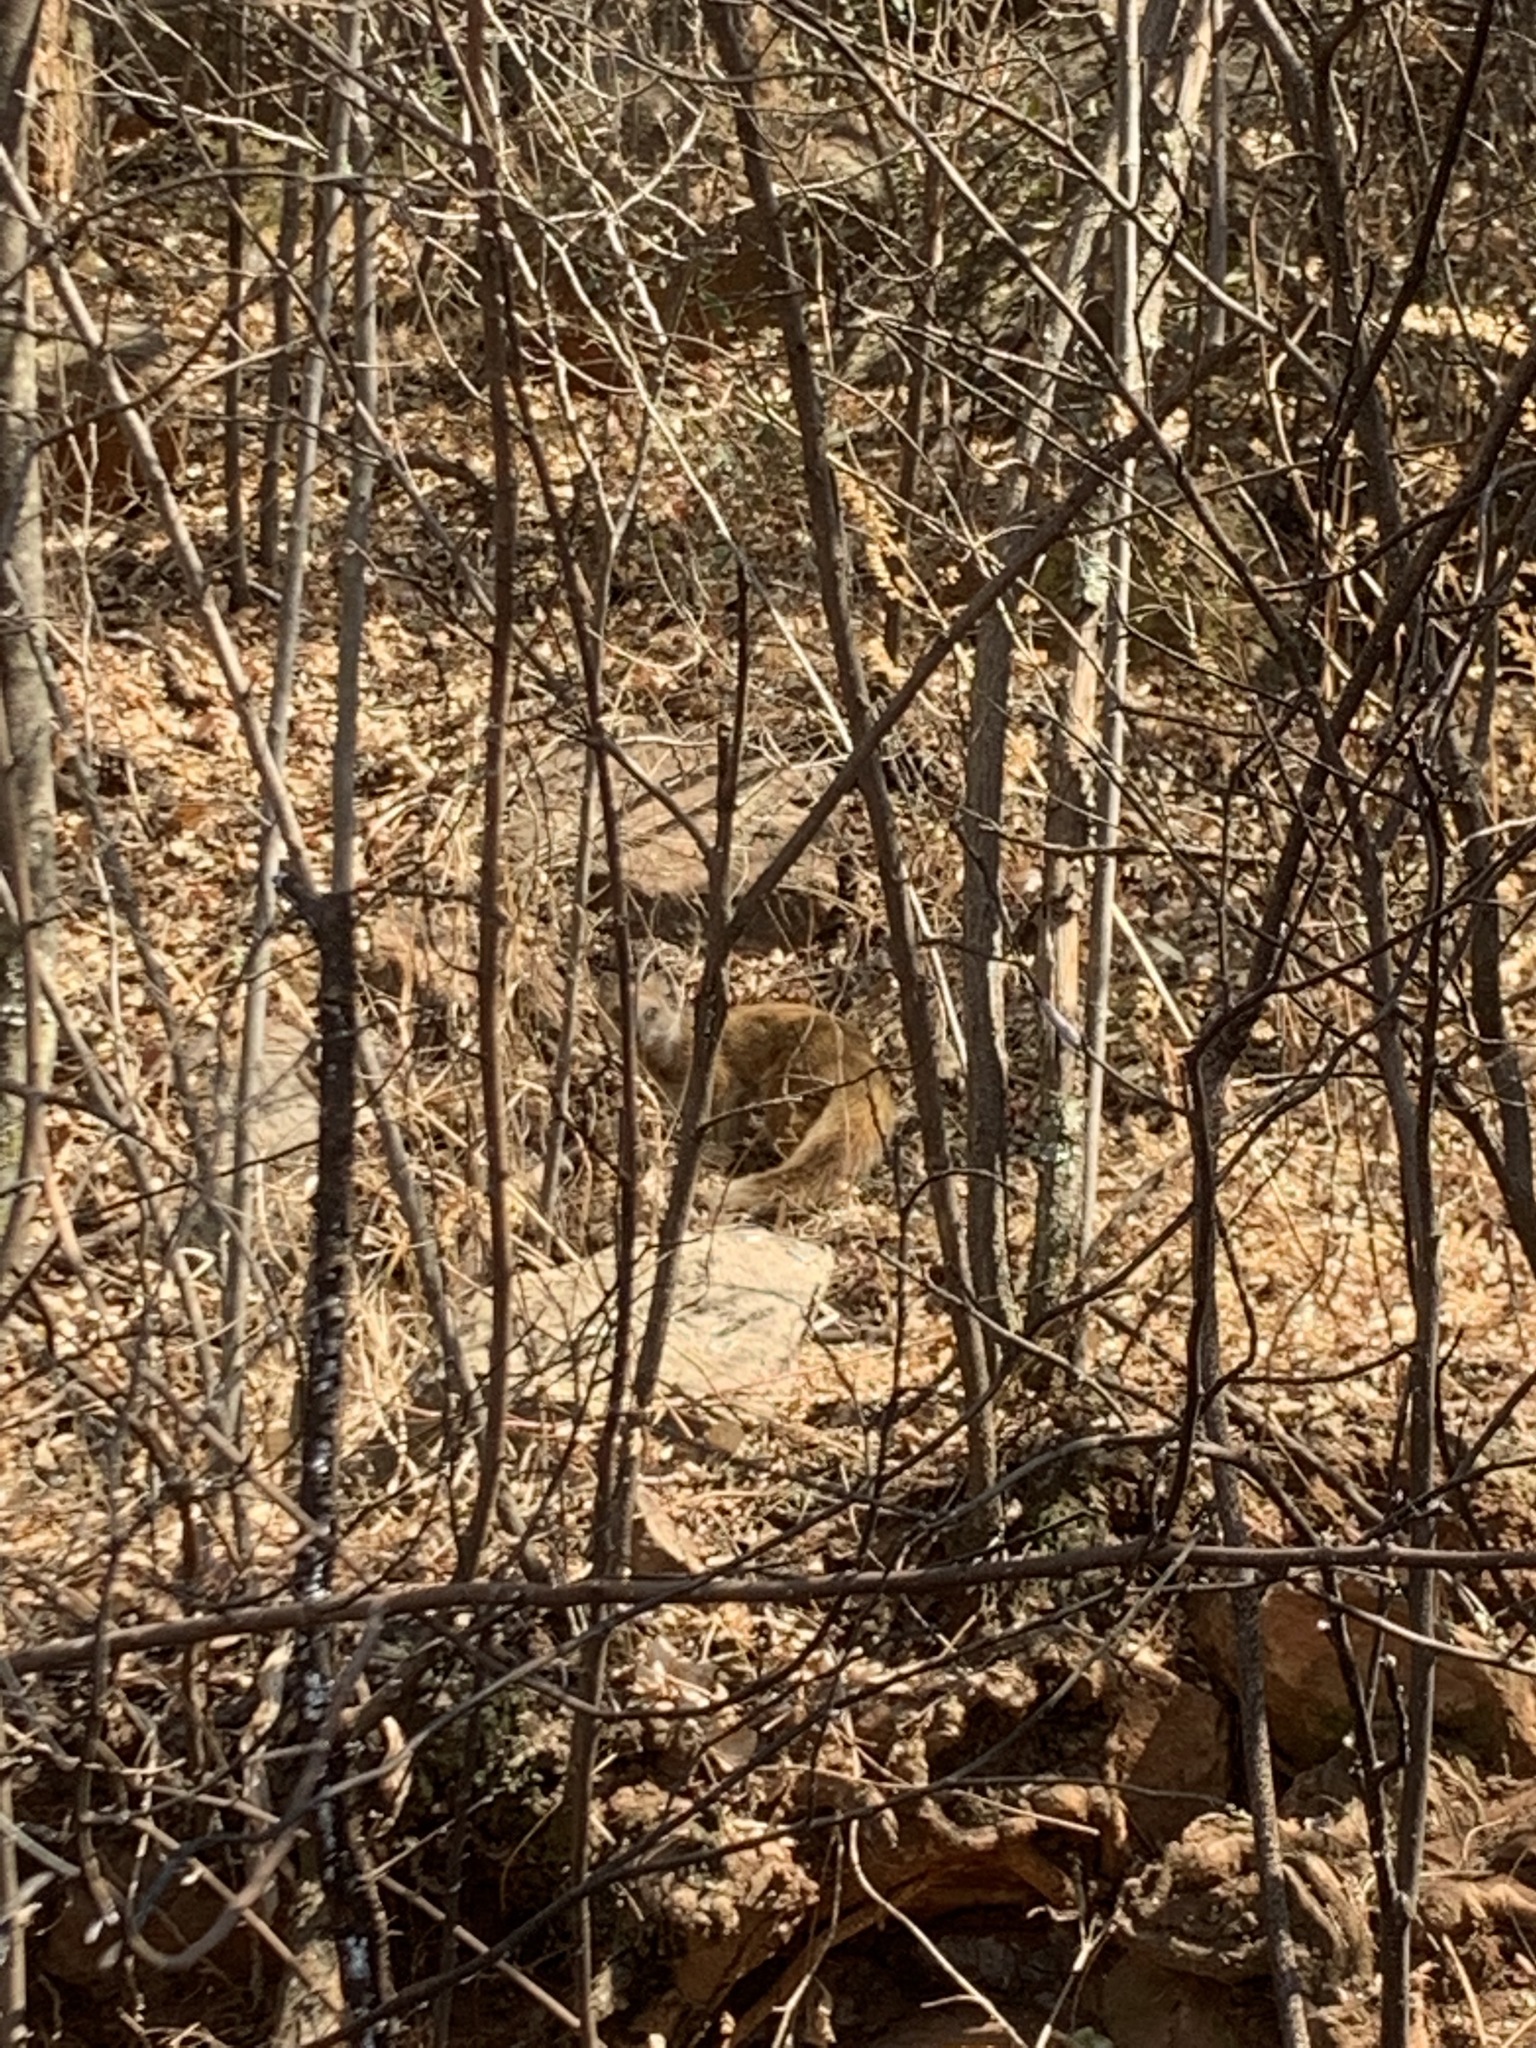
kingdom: Animalia
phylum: Chordata
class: Mammalia
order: Carnivora
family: Herpestidae
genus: Cynictis
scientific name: Cynictis penicillata
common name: Yellow mongoose
